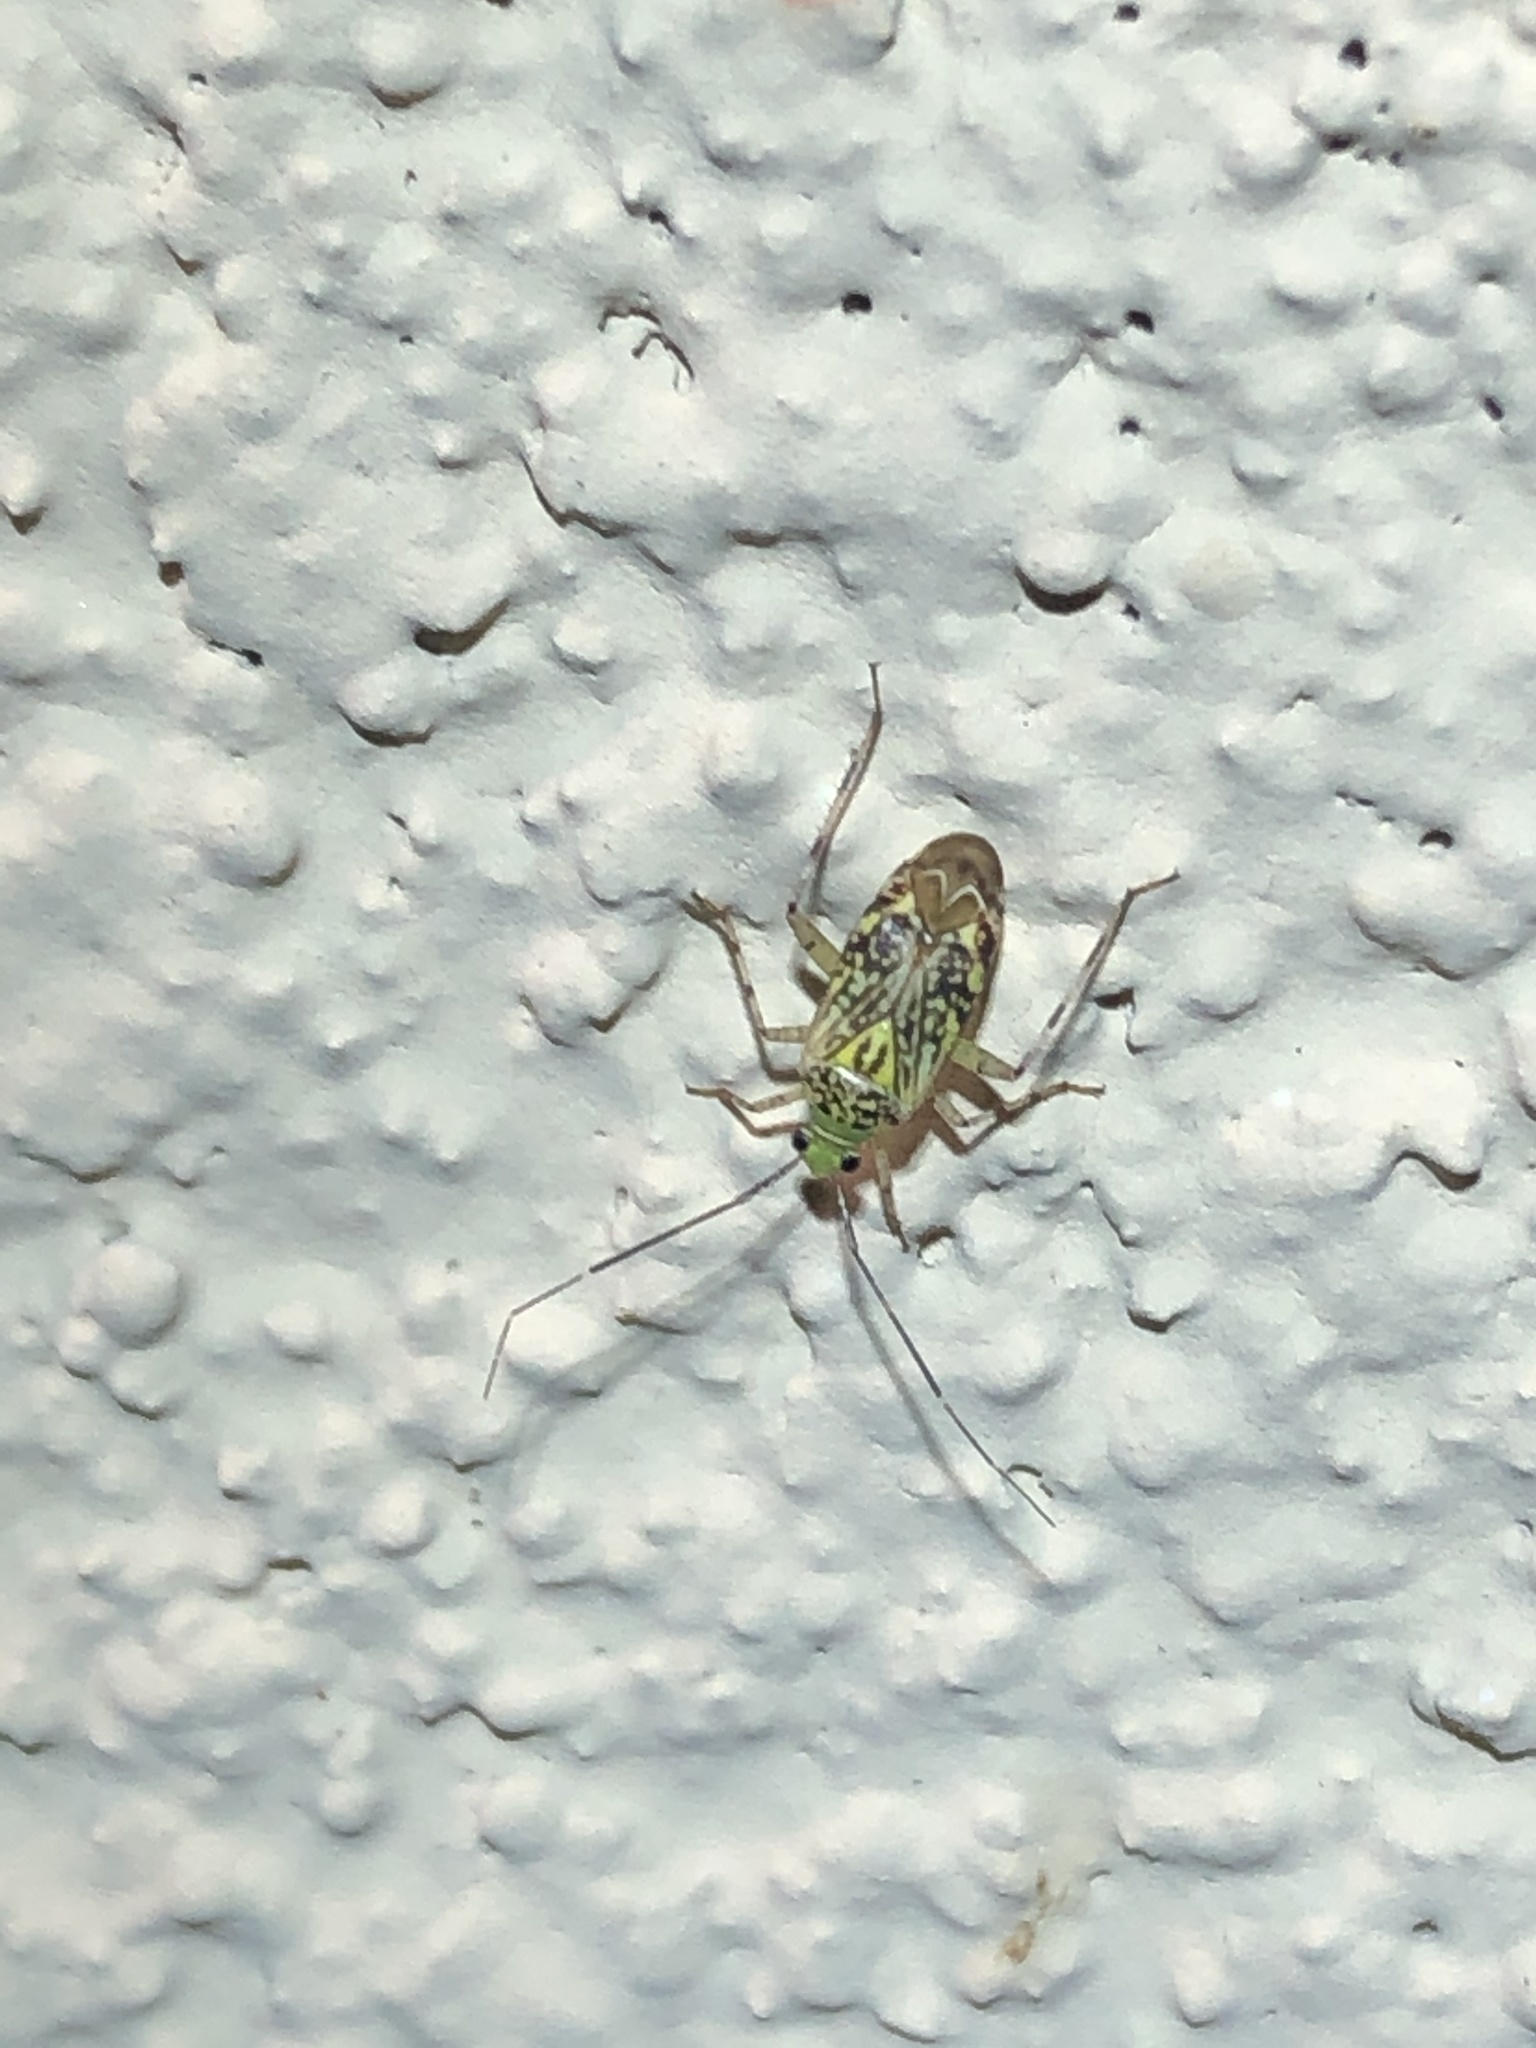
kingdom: Animalia
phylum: Arthropoda
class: Insecta
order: Hemiptera
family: Miridae
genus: Taedia
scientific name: Taedia marmorata
